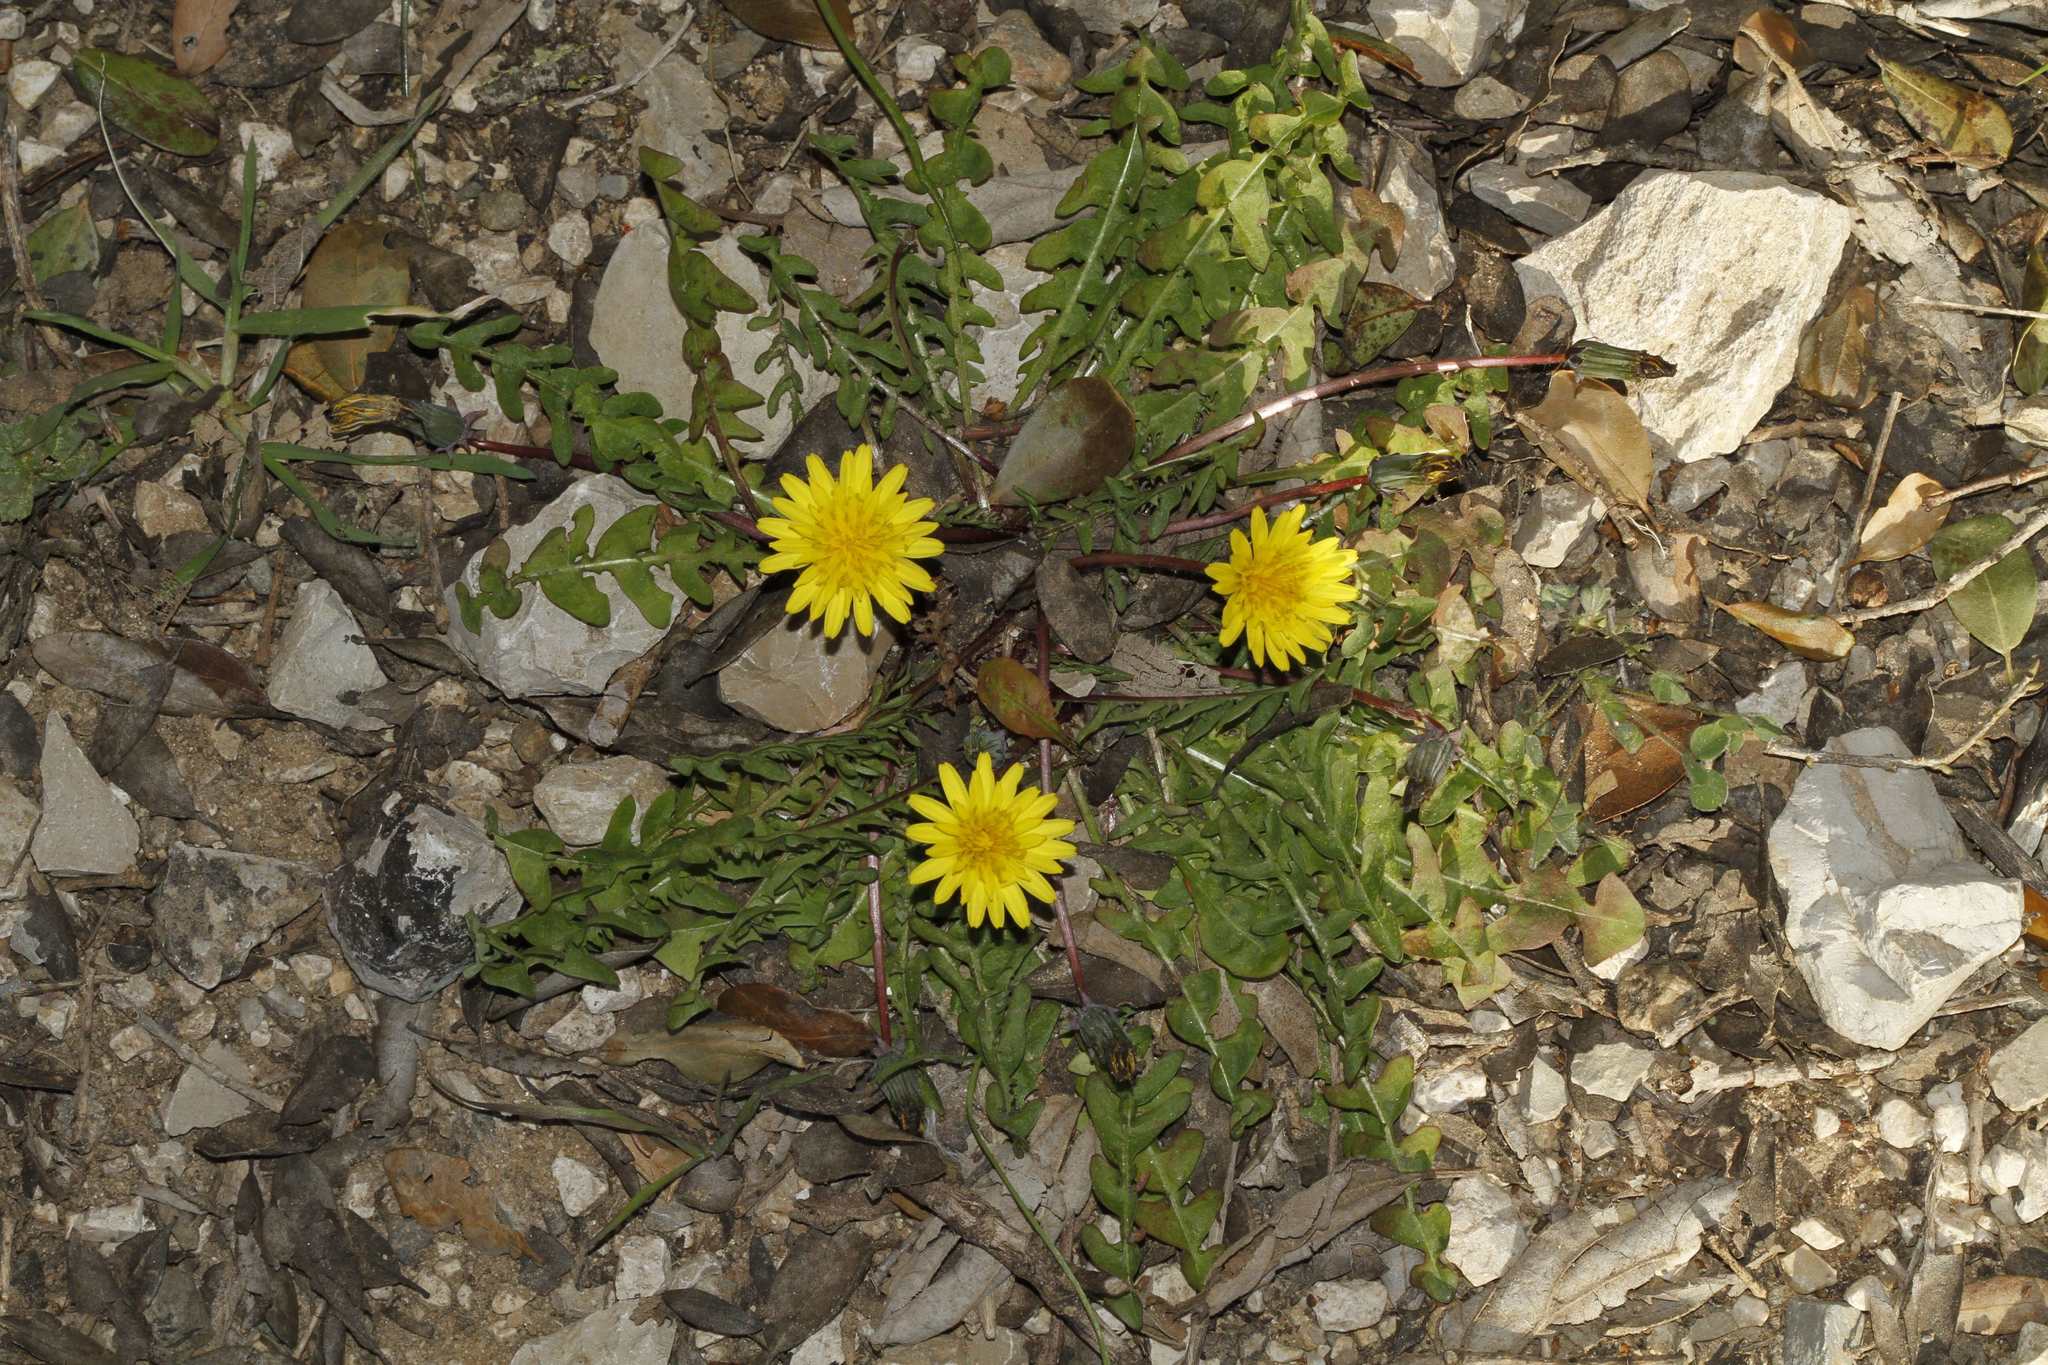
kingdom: Plantae
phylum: Tracheophyta
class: Magnoliopsida
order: Asterales
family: Asteraceae
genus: Taraxacum
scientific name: Taraxacum officinale
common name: Common dandelion
